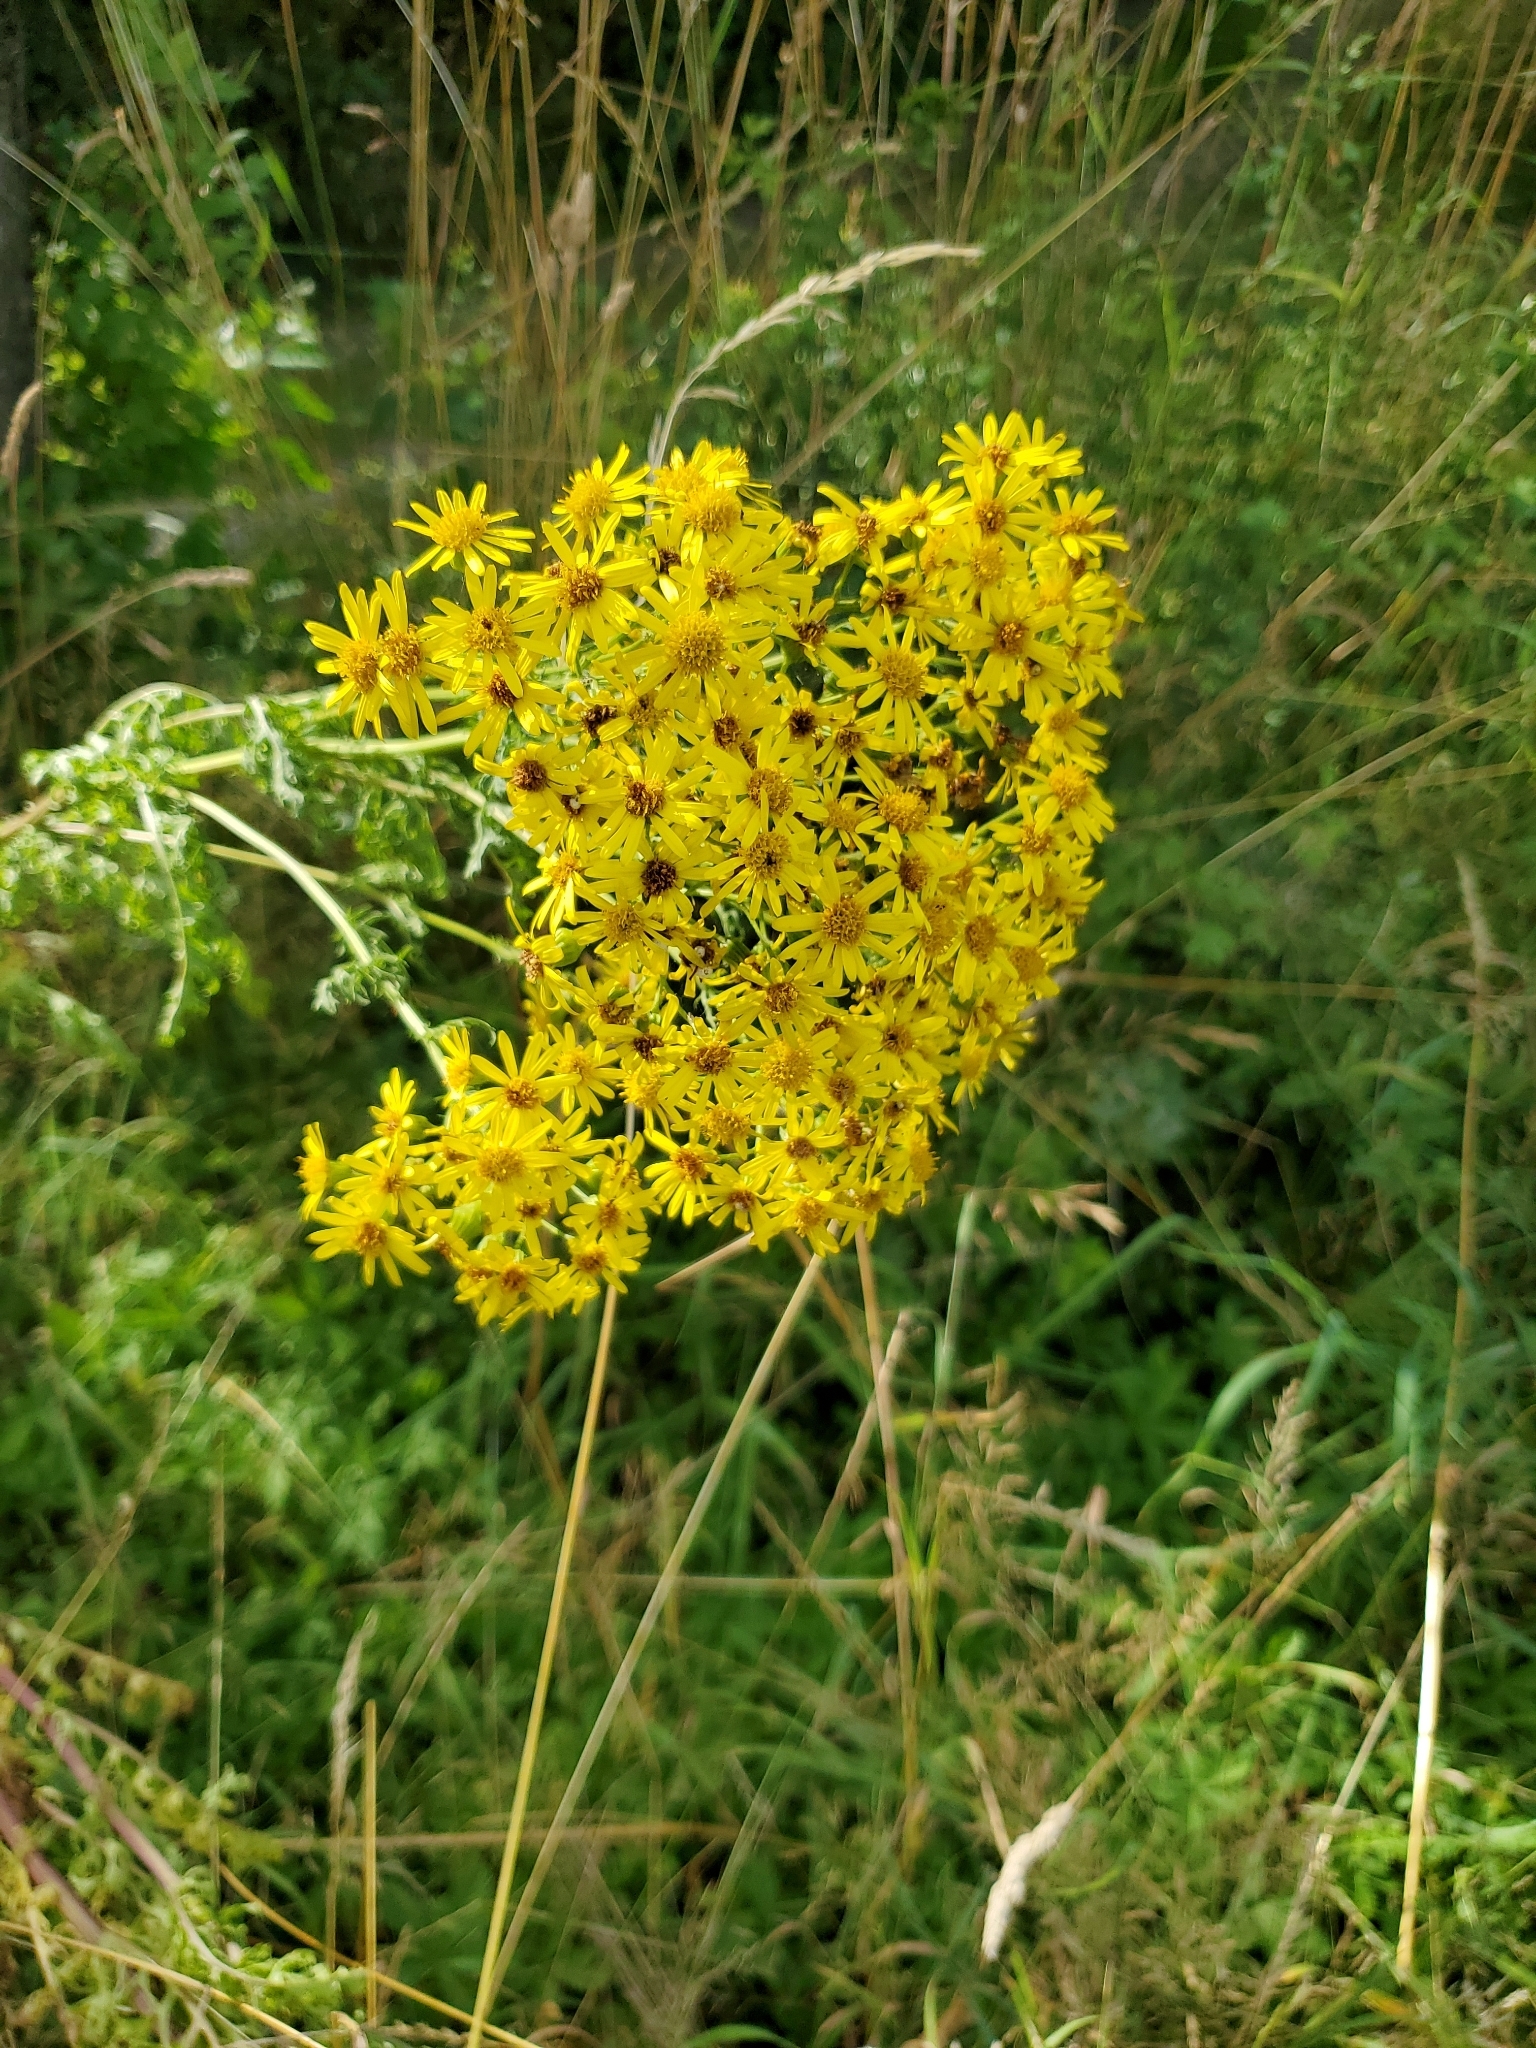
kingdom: Plantae
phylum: Tracheophyta
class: Magnoliopsida
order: Asterales
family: Asteraceae
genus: Jacobaea
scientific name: Jacobaea vulgaris
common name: Stinking willie
